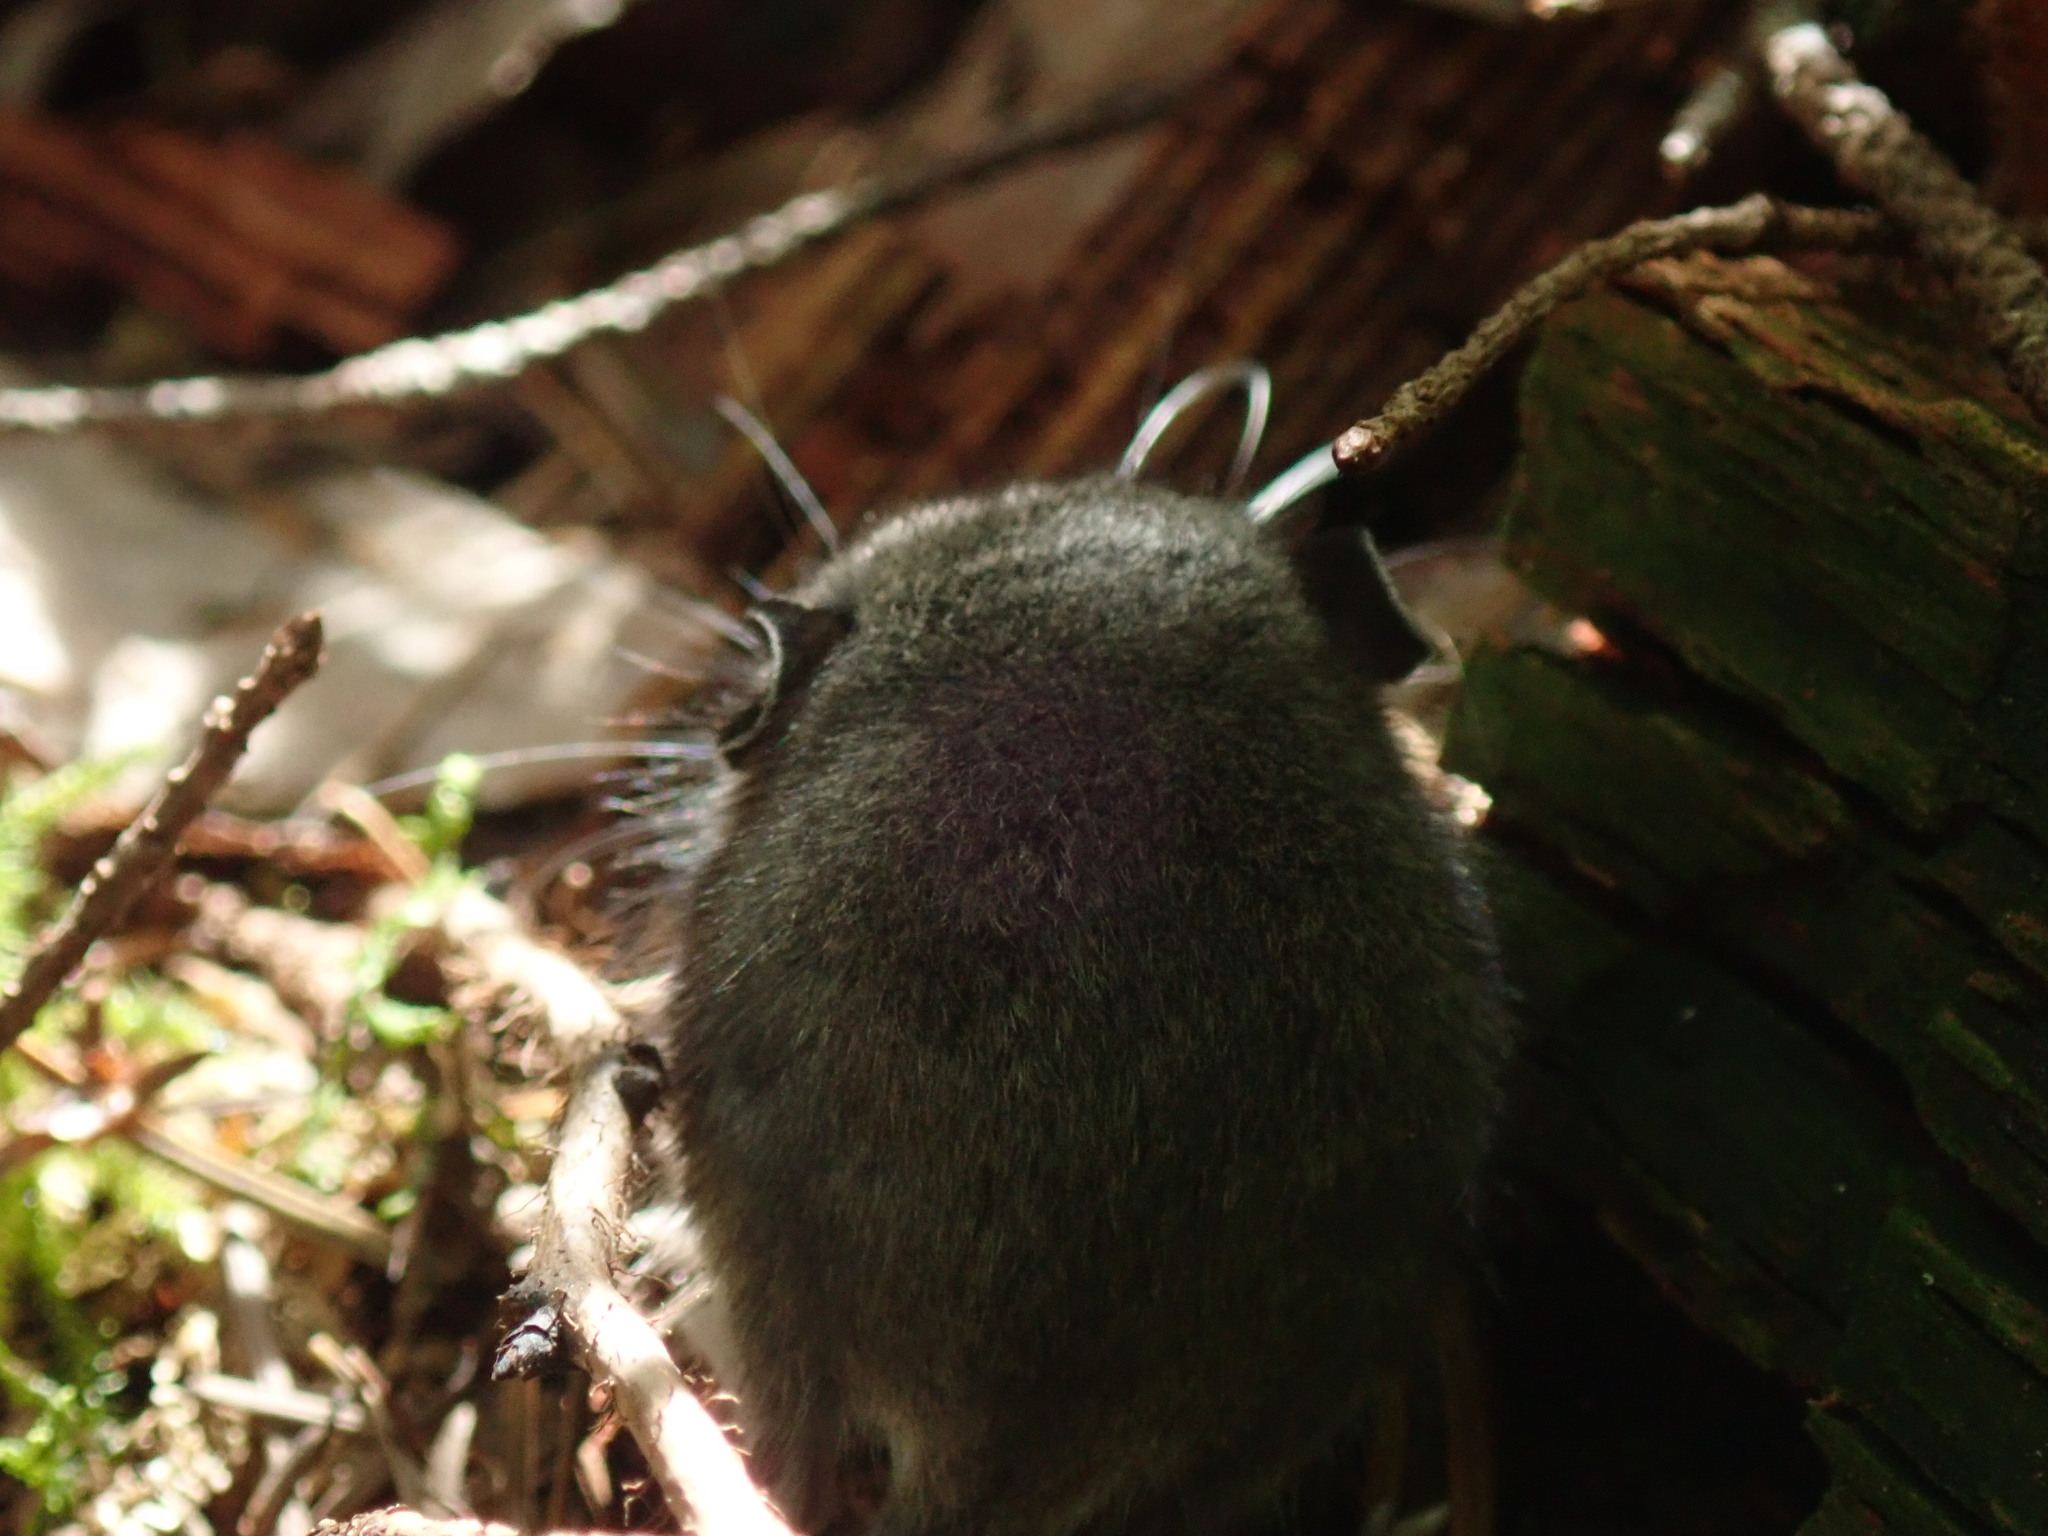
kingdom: Animalia
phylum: Chordata
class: Mammalia
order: Rodentia
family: Cricetidae
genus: Peromyscus
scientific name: Peromyscus maniculatus
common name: Deer mouse
